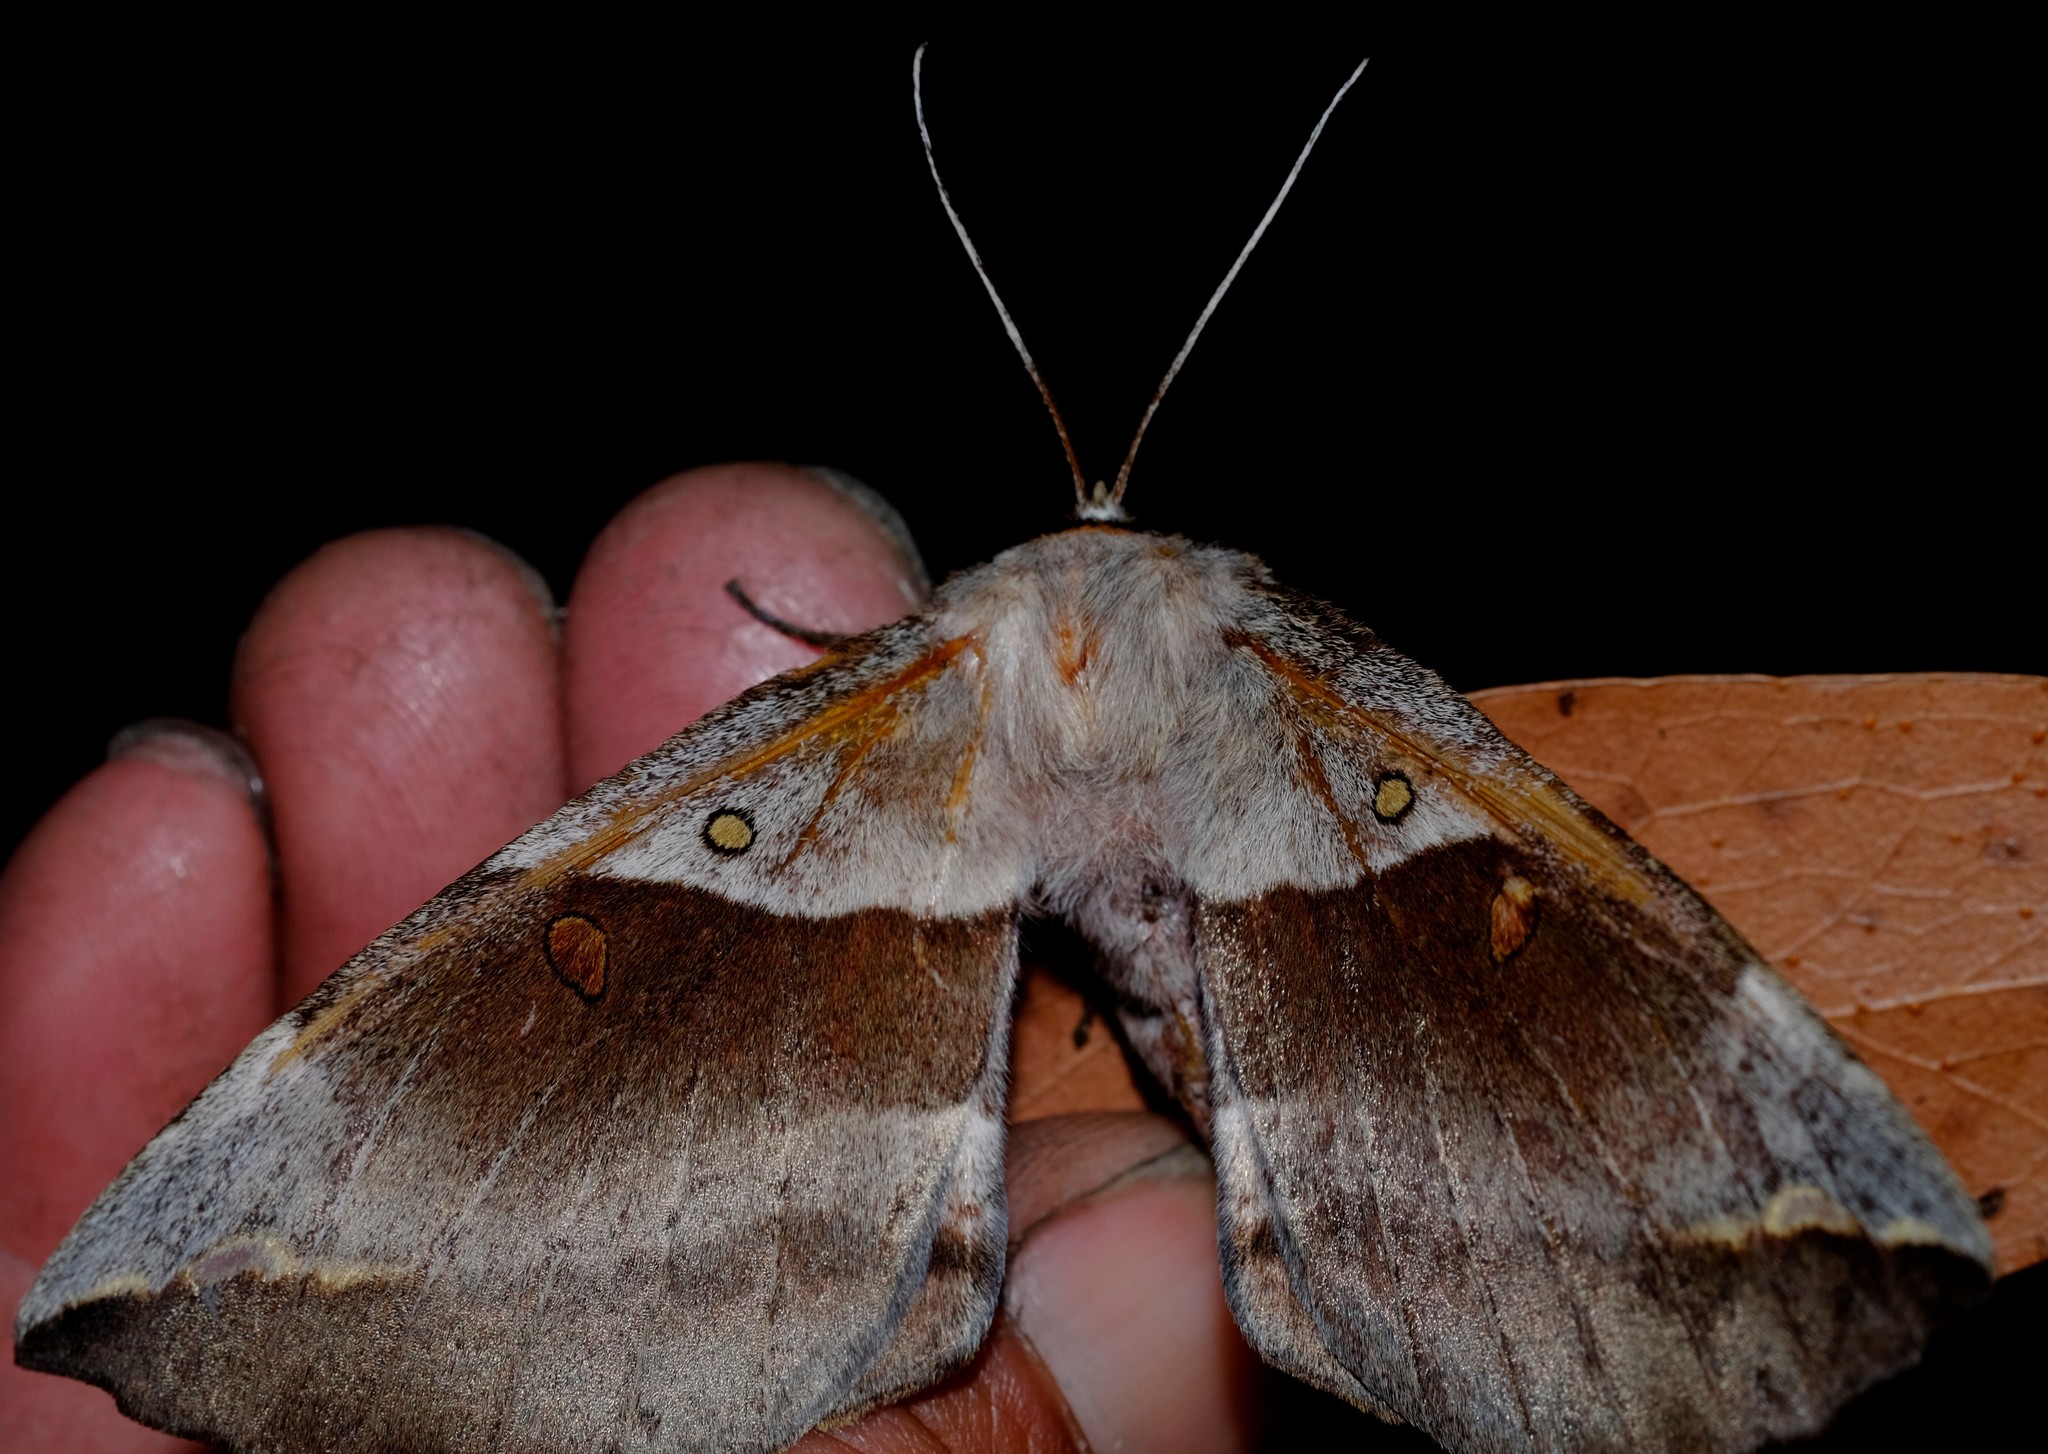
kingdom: Animalia
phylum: Arthropoda
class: Insecta
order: Lepidoptera
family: Anthelidae
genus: Chelepteryx
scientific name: Chelepteryx chalepteryx
